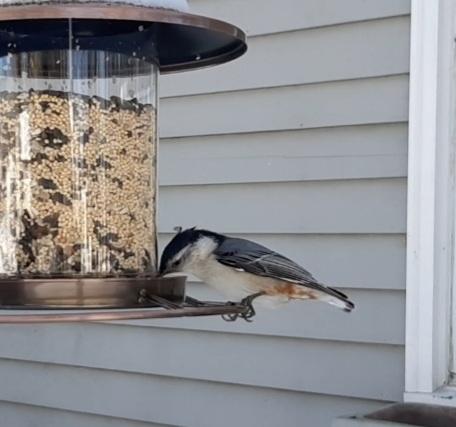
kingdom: Animalia
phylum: Chordata
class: Aves
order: Passeriformes
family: Sittidae
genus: Sitta
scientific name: Sitta carolinensis
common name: White-breasted nuthatch
